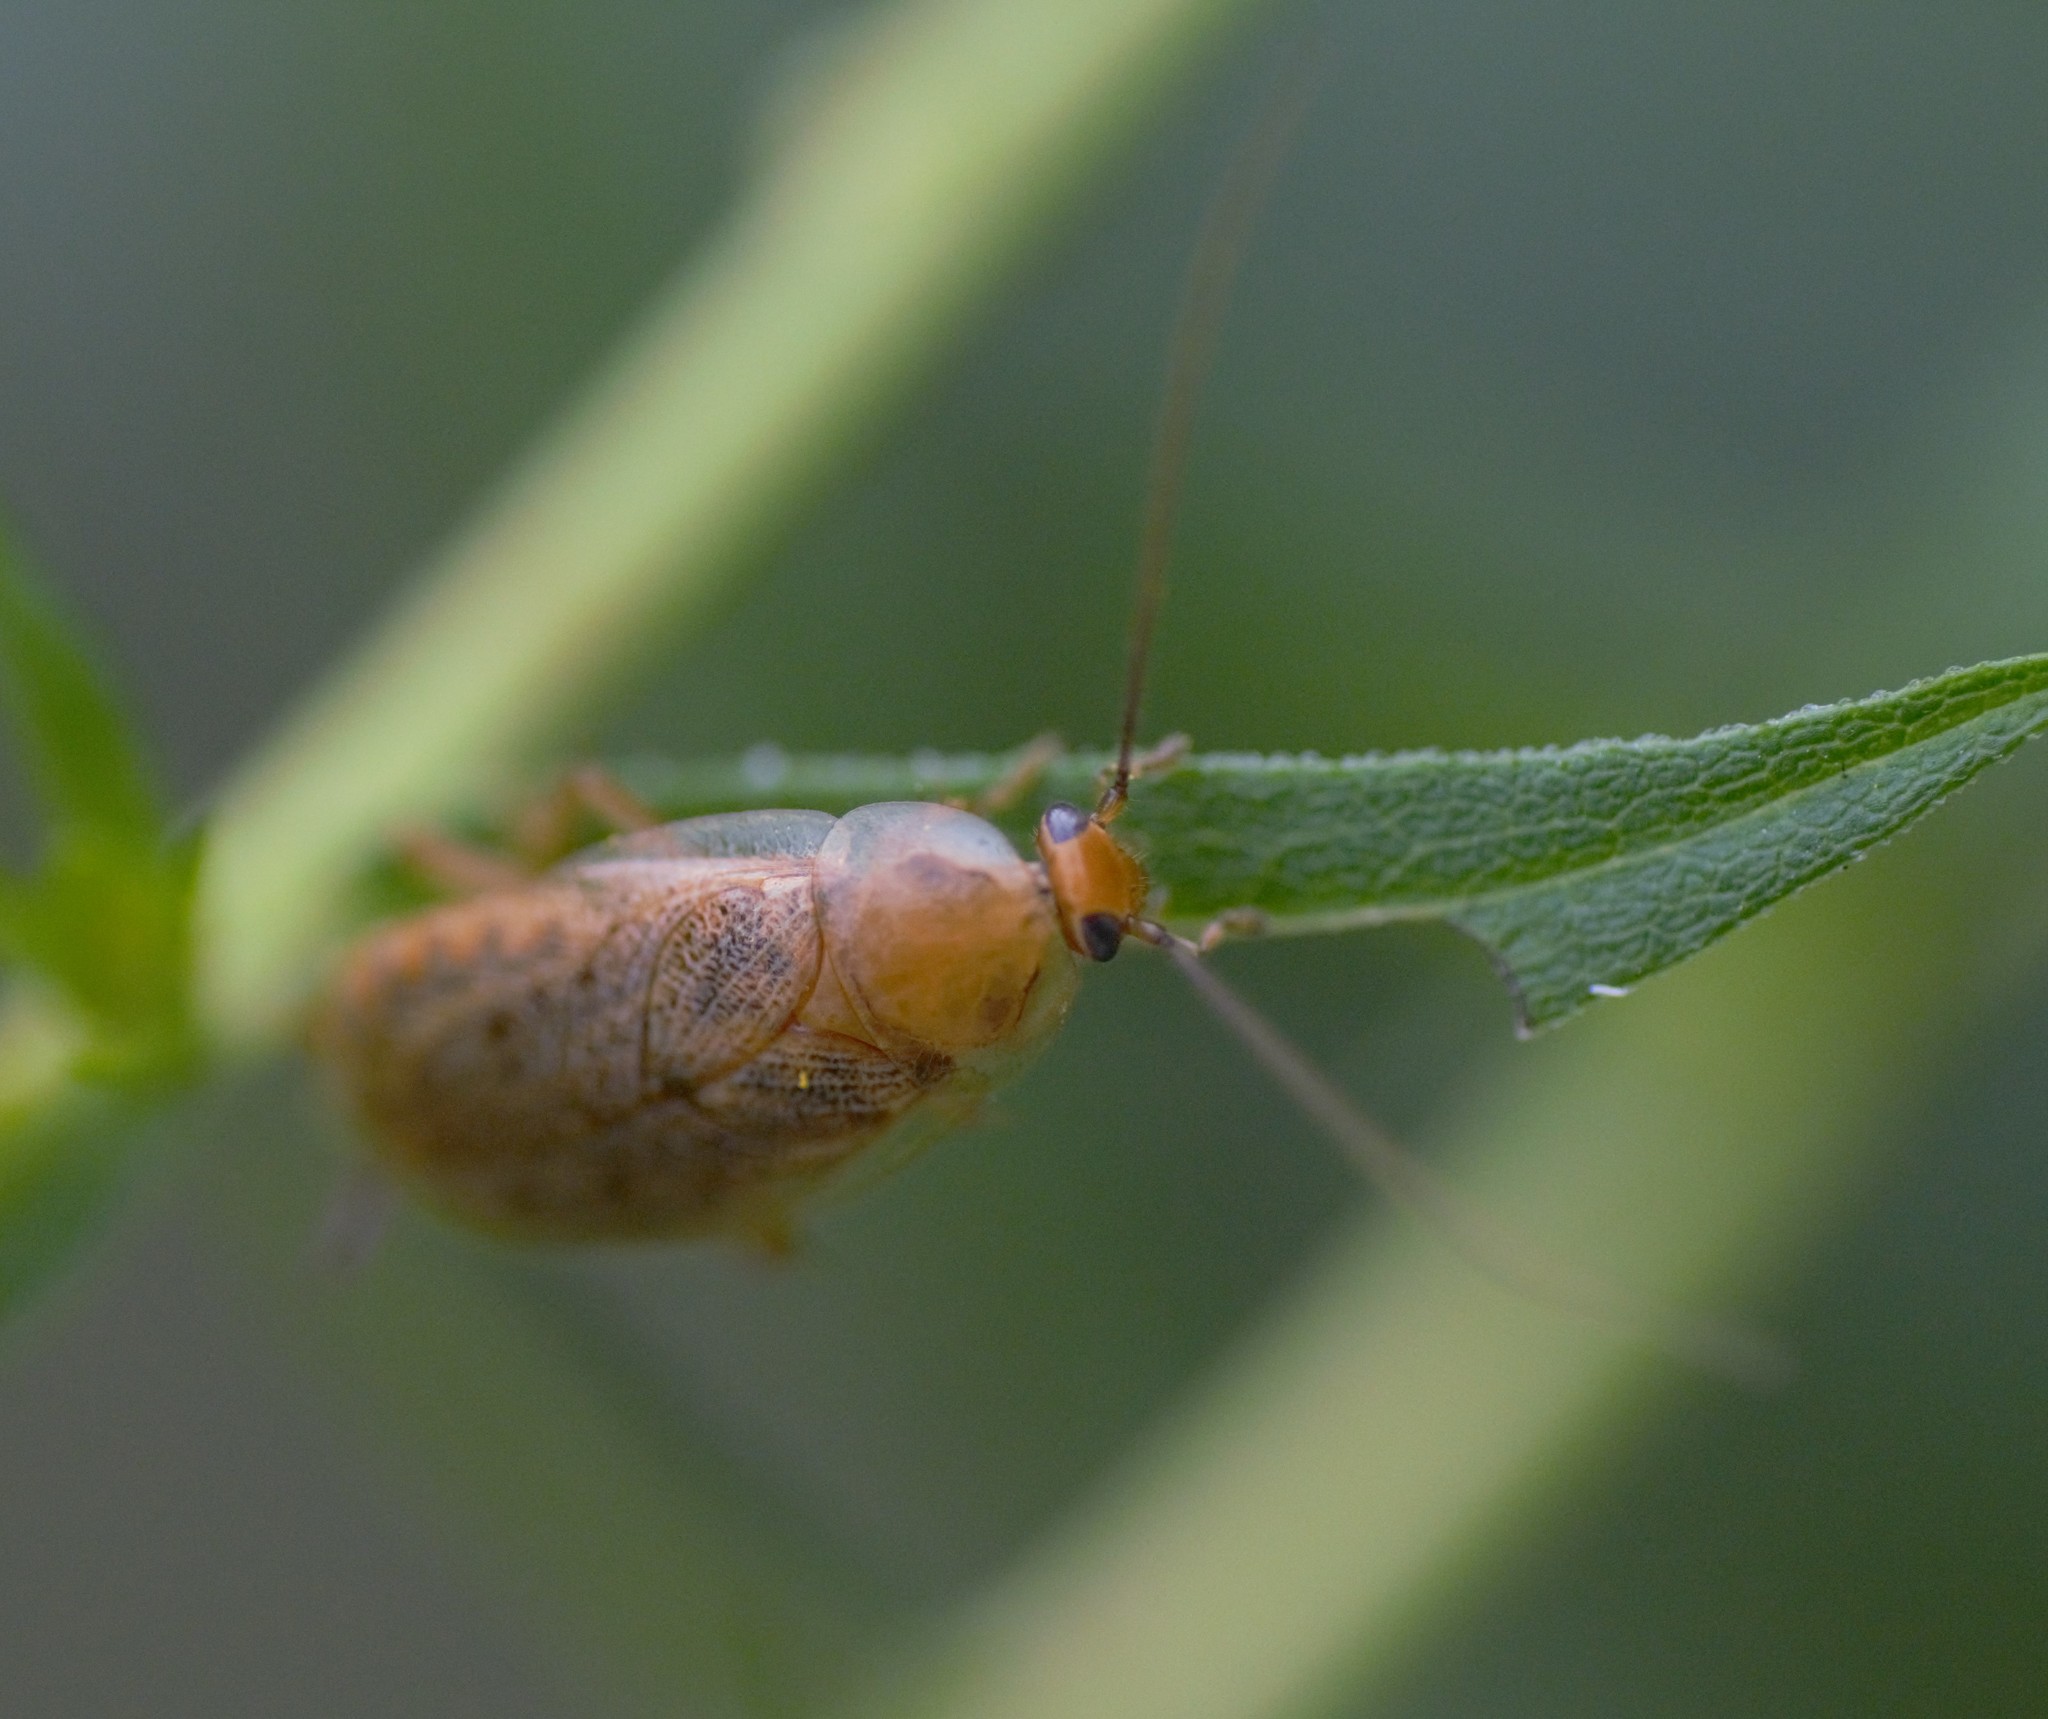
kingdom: Animalia
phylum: Arthropoda
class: Insecta
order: Blattodea
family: Ectobiidae
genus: Ectobius
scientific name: Ectobius lapponicus
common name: Dusky cockroach
